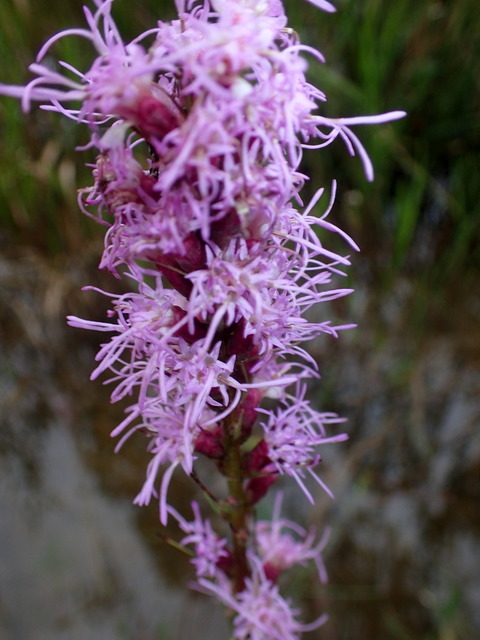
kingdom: Plantae
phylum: Tracheophyta
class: Magnoliopsida
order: Asterales
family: Asteraceae
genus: Liatris
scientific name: Liatris spicata
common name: Florist gayfeather
